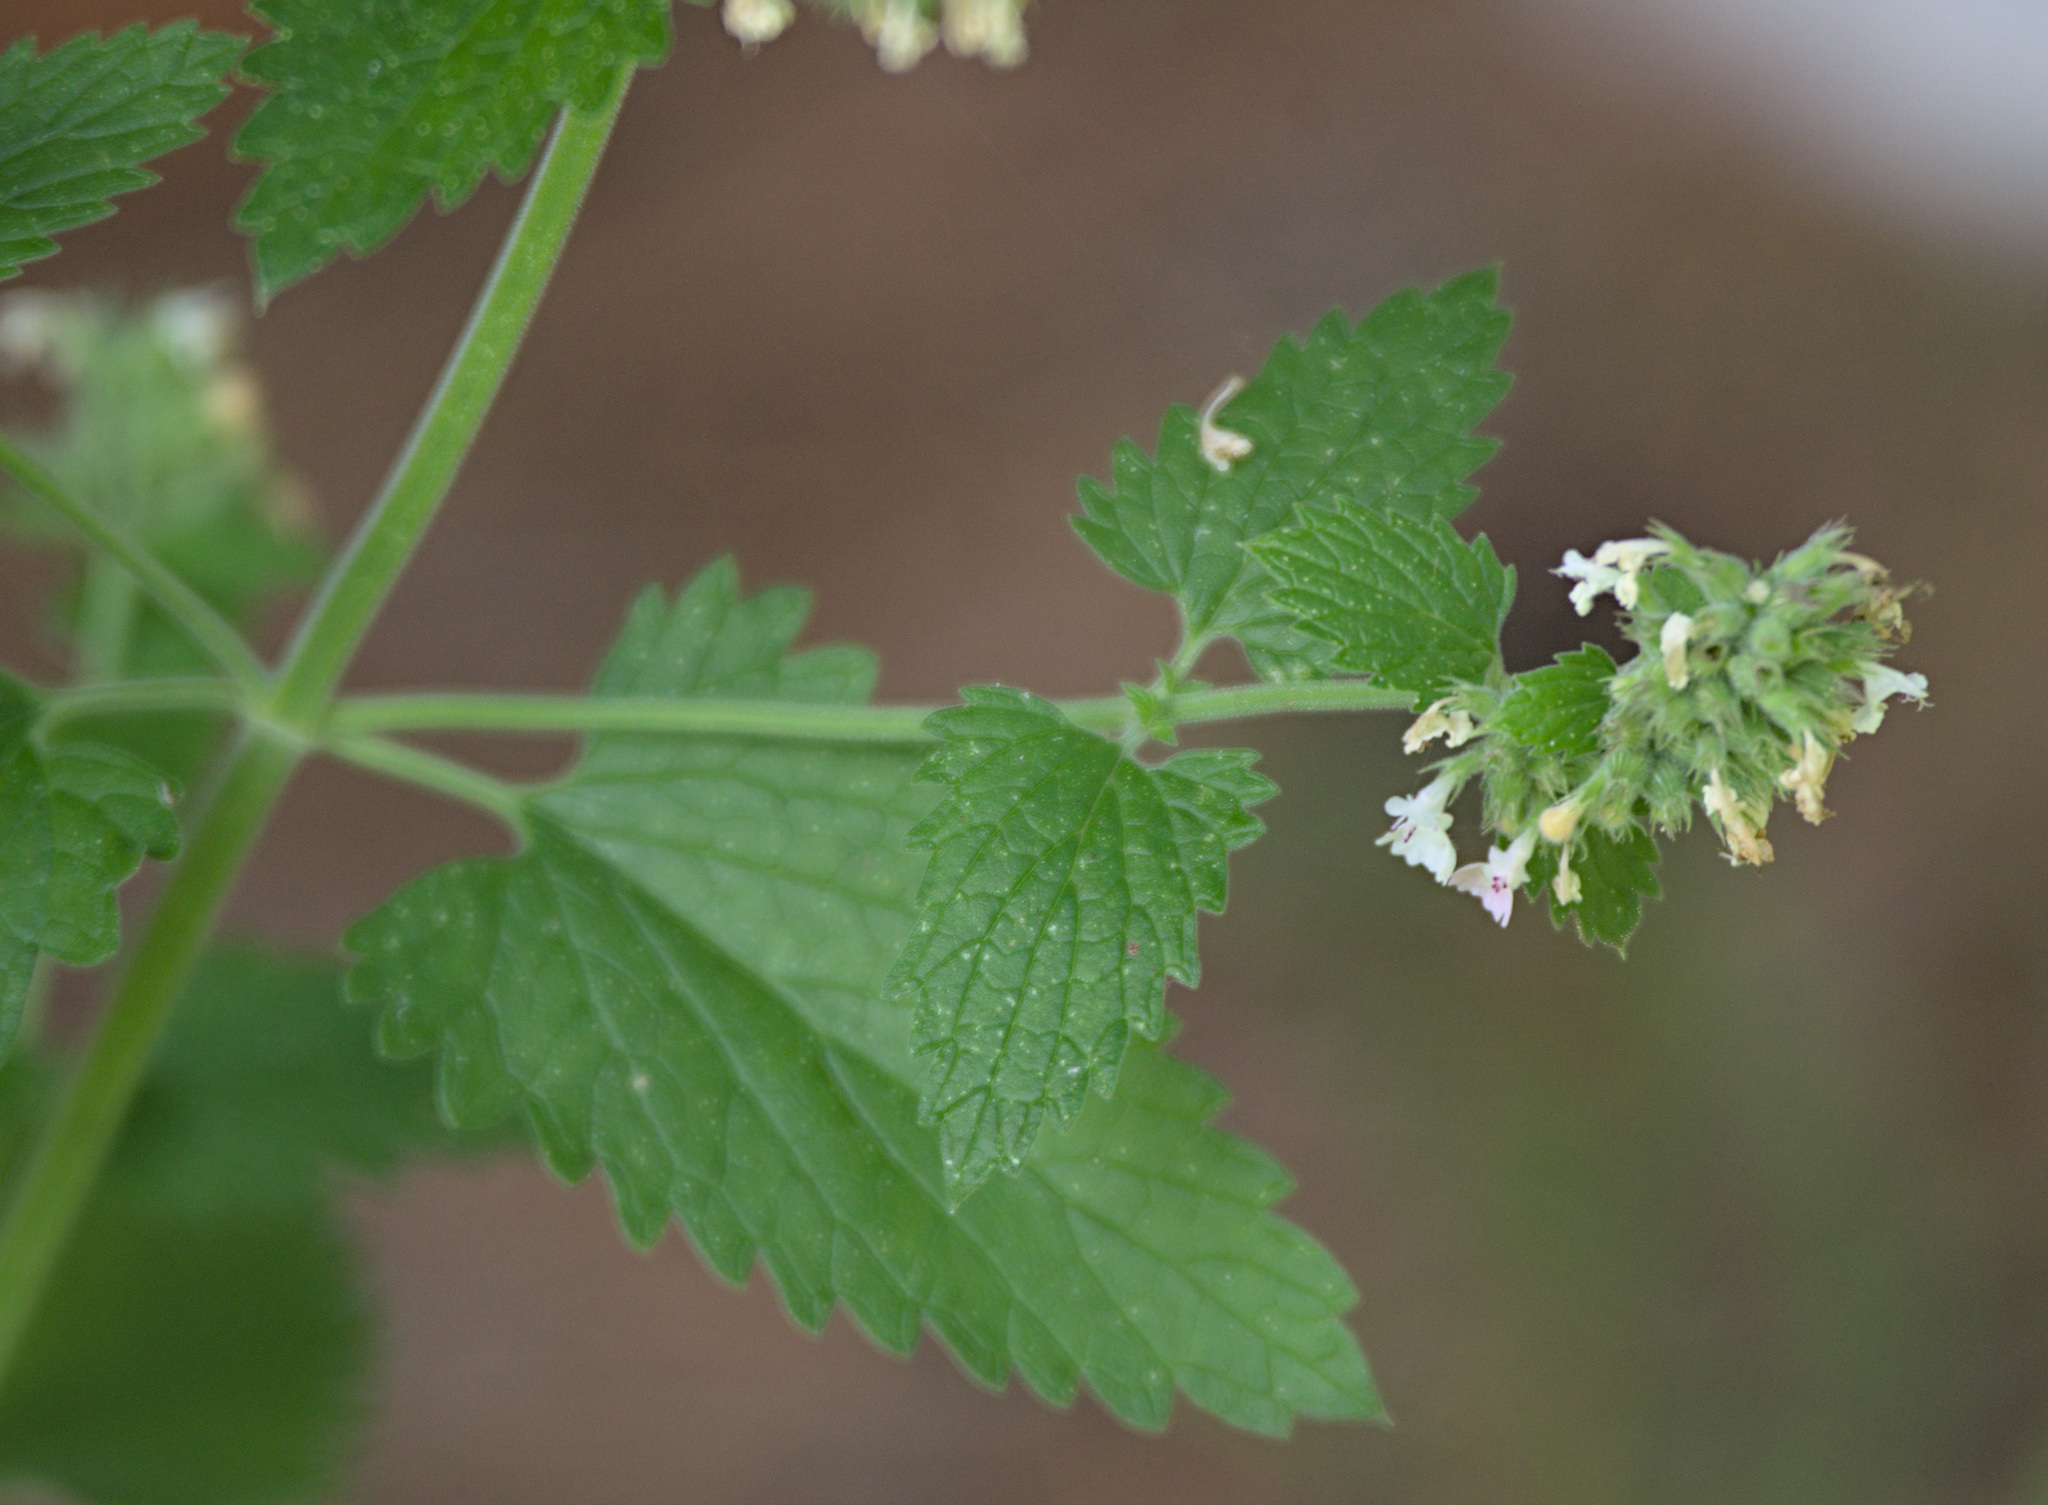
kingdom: Plantae
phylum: Tracheophyta
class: Magnoliopsida
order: Lamiales
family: Lamiaceae
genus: Nepeta
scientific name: Nepeta cataria
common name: Catnip
